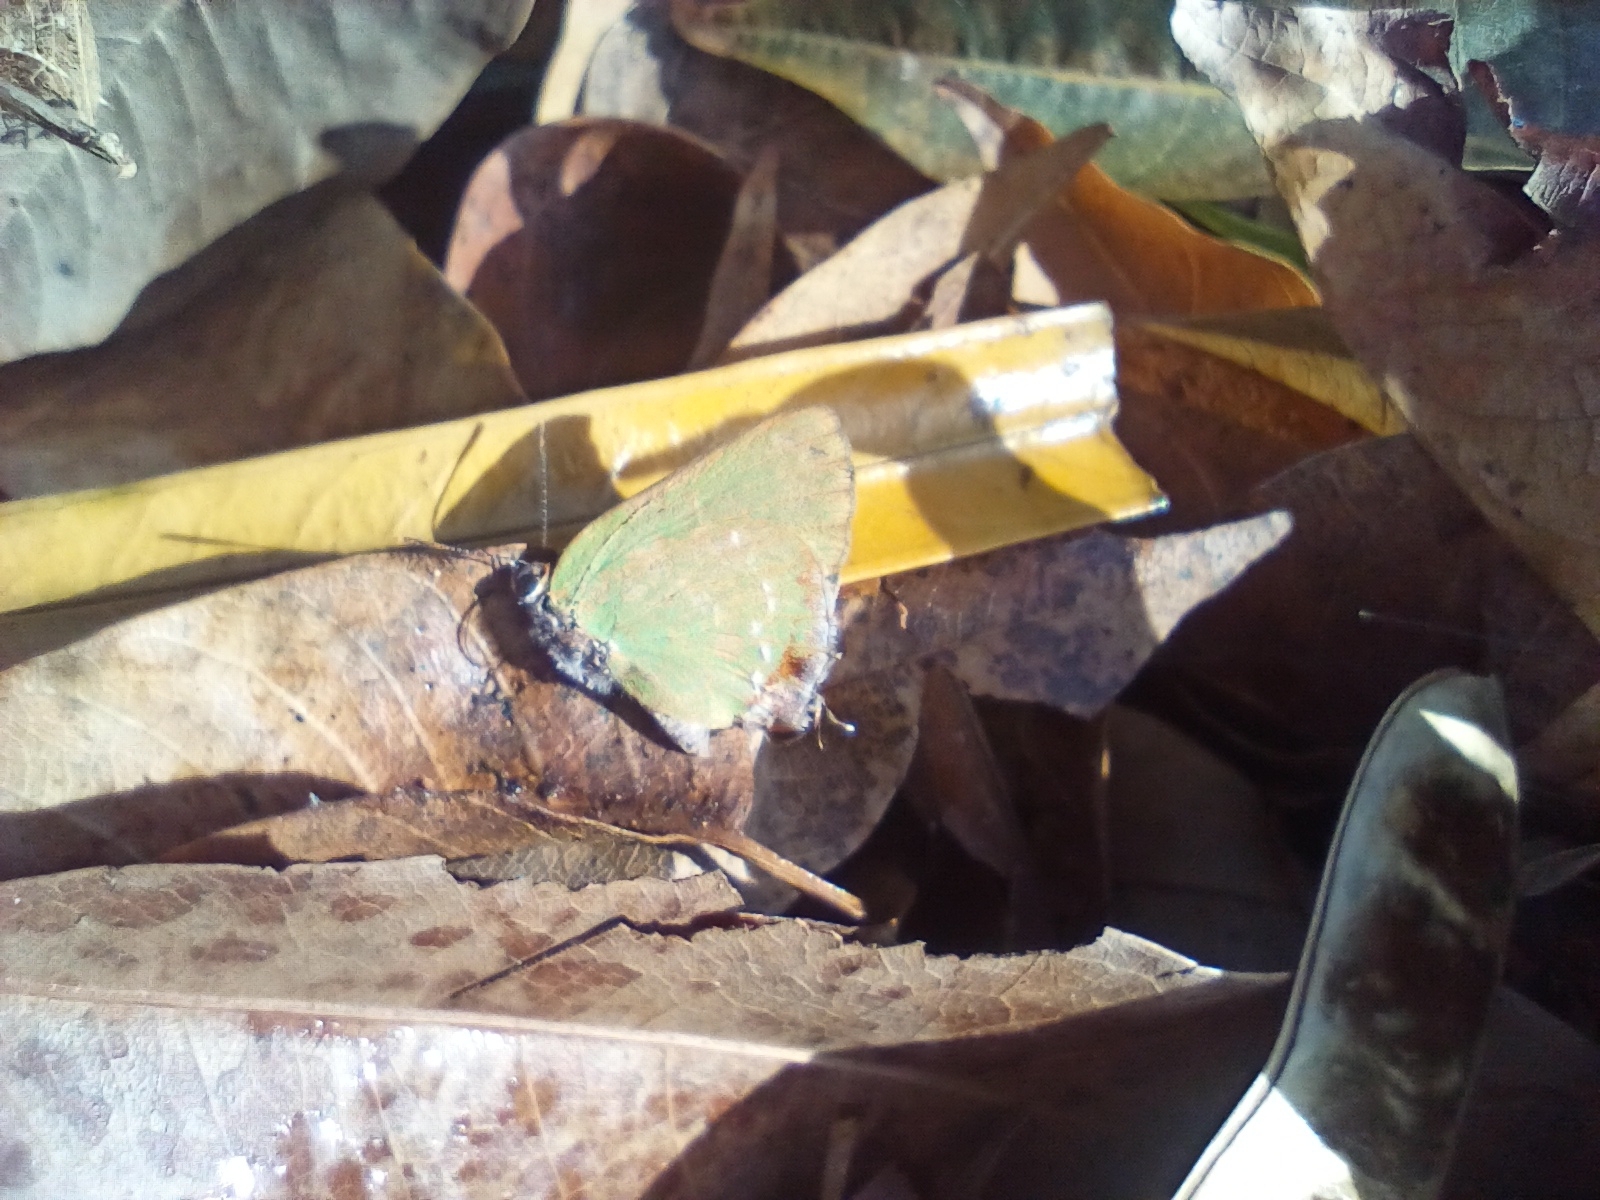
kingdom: Animalia
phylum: Arthropoda
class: Insecta
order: Lepidoptera
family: Lycaenidae
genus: Cyanophrys
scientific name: Cyanophrys miserabilis
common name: Clench's greenstreak
